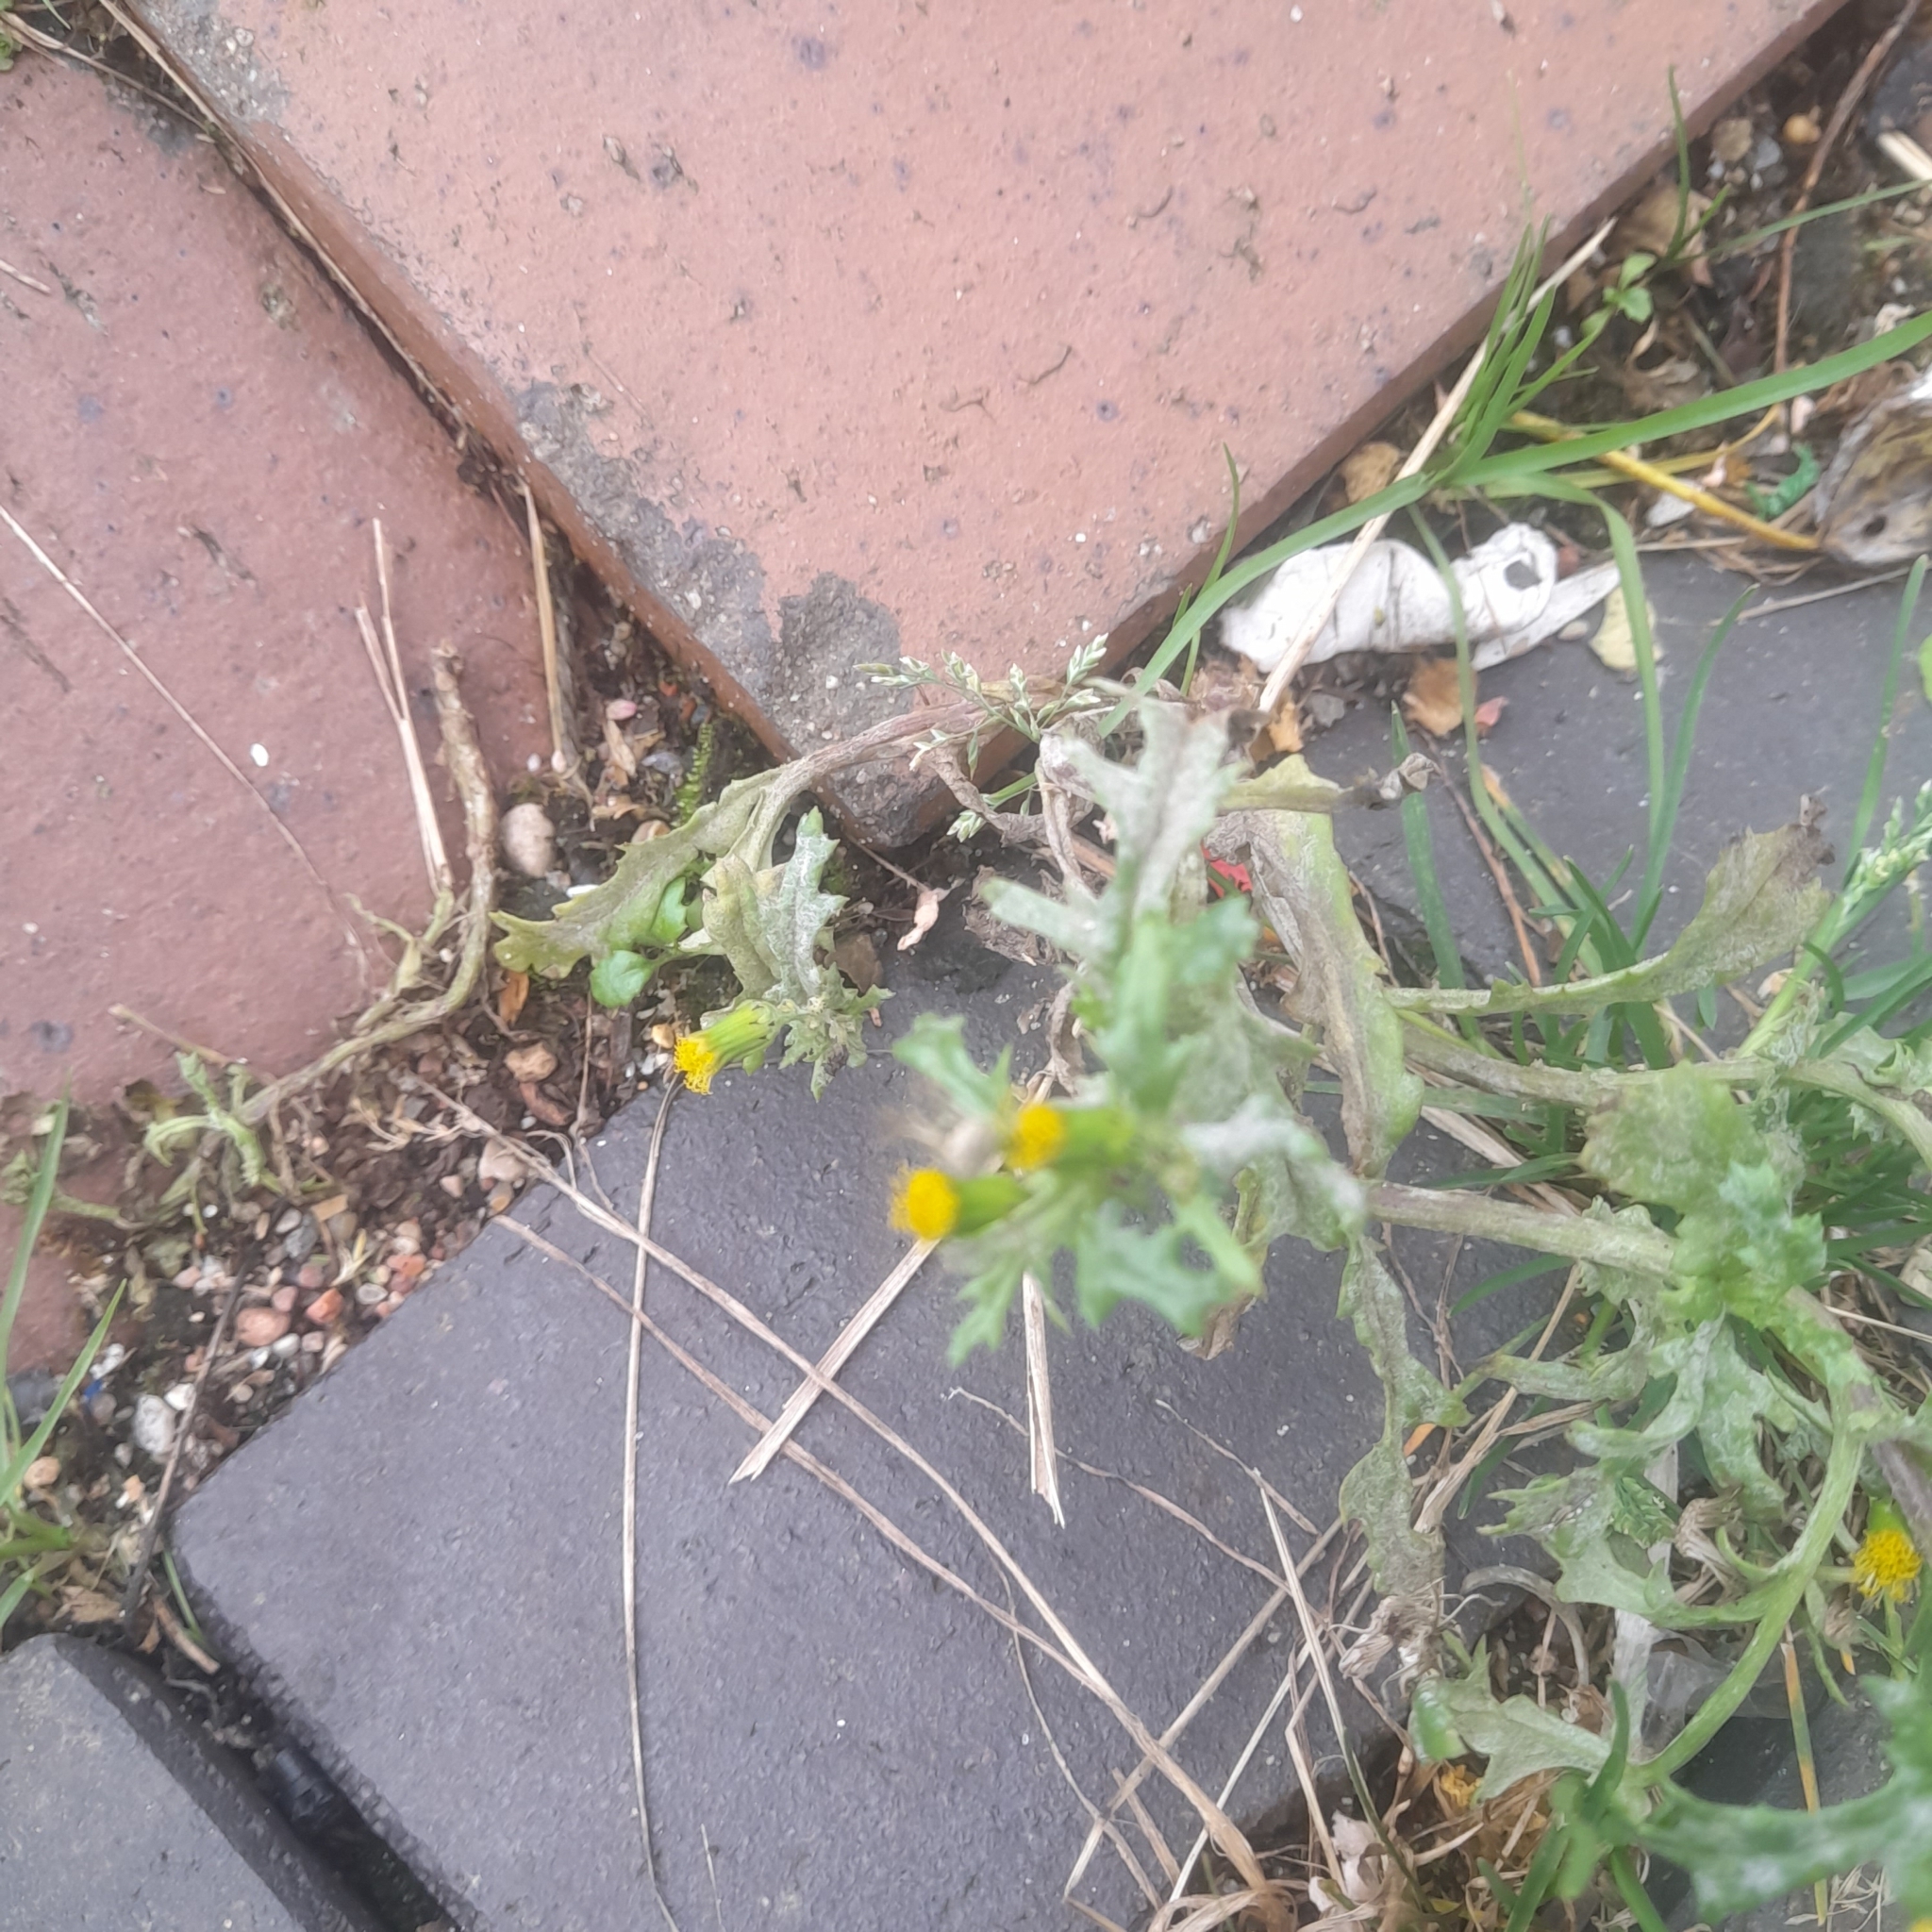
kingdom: Plantae
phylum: Tracheophyta
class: Magnoliopsida
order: Asterales
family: Asteraceae
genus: Senecio
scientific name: Senecio vulgaris
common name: Old-man-in-the-spring
